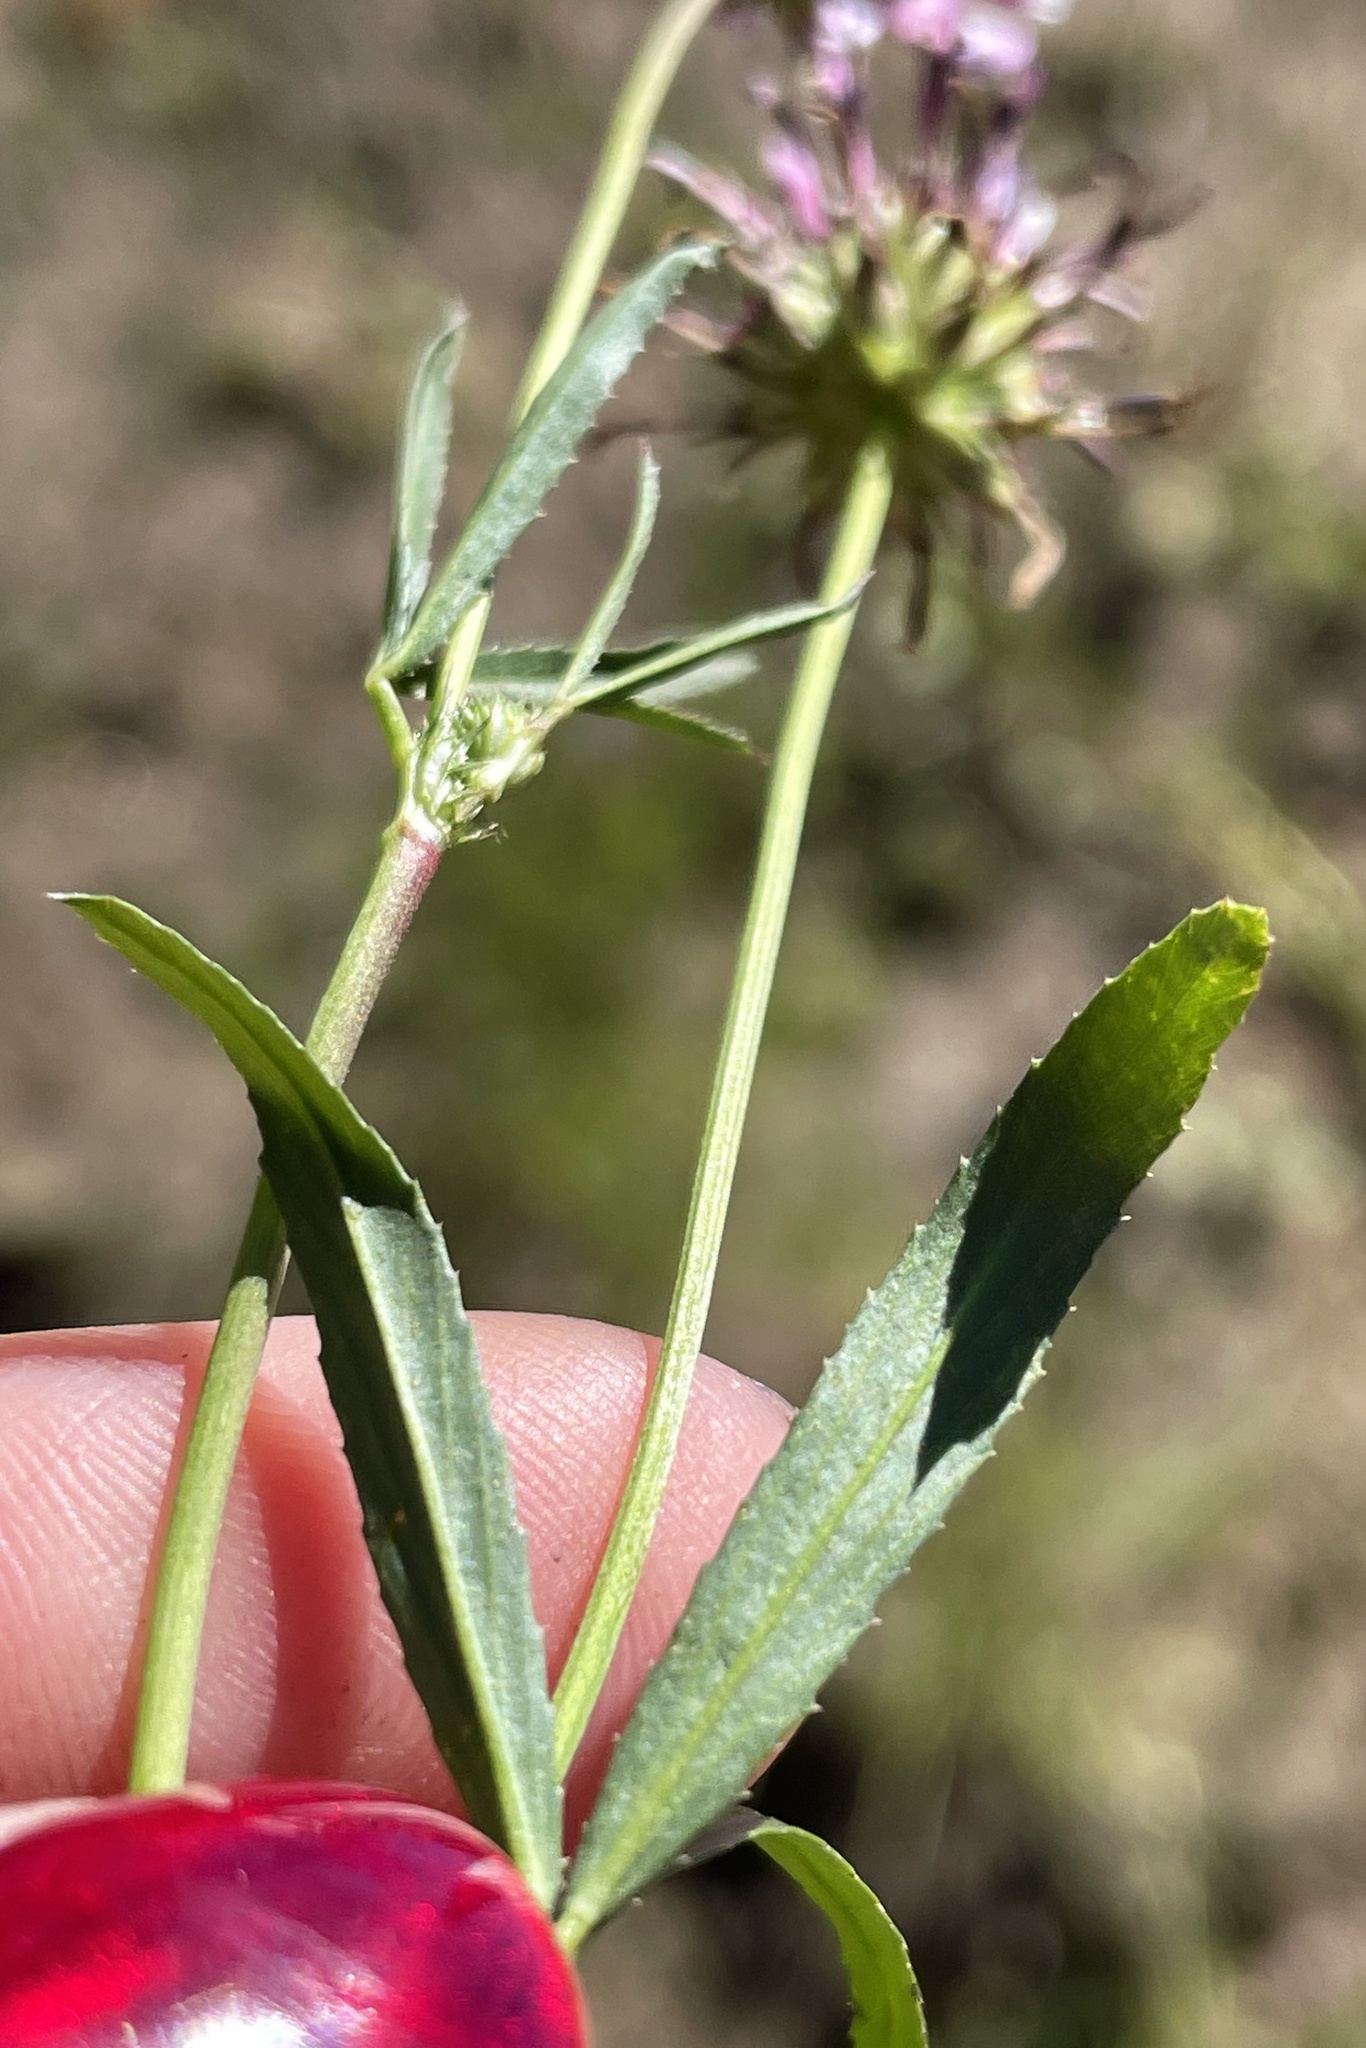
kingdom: Plantae
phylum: Tracheophyta
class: Magnoliopsida
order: Fabales
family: Fabaceae
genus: Trifolium
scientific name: Trifolium willdenovii
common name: Tomcat clover
